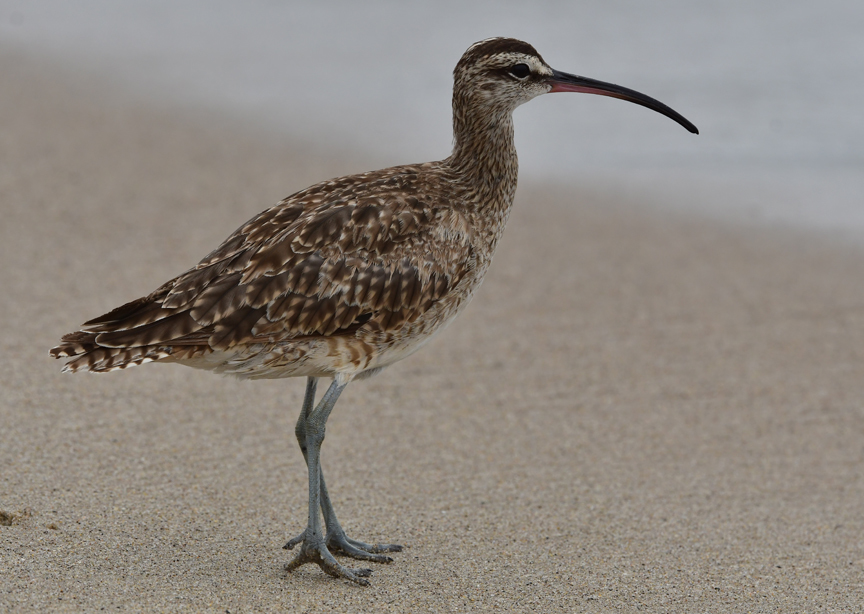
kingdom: Animalia
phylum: Chordata
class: Aves
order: Charadriiformes
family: Scolopacidae
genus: Numenius
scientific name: Numenius phaeopus
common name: Whimbrel
